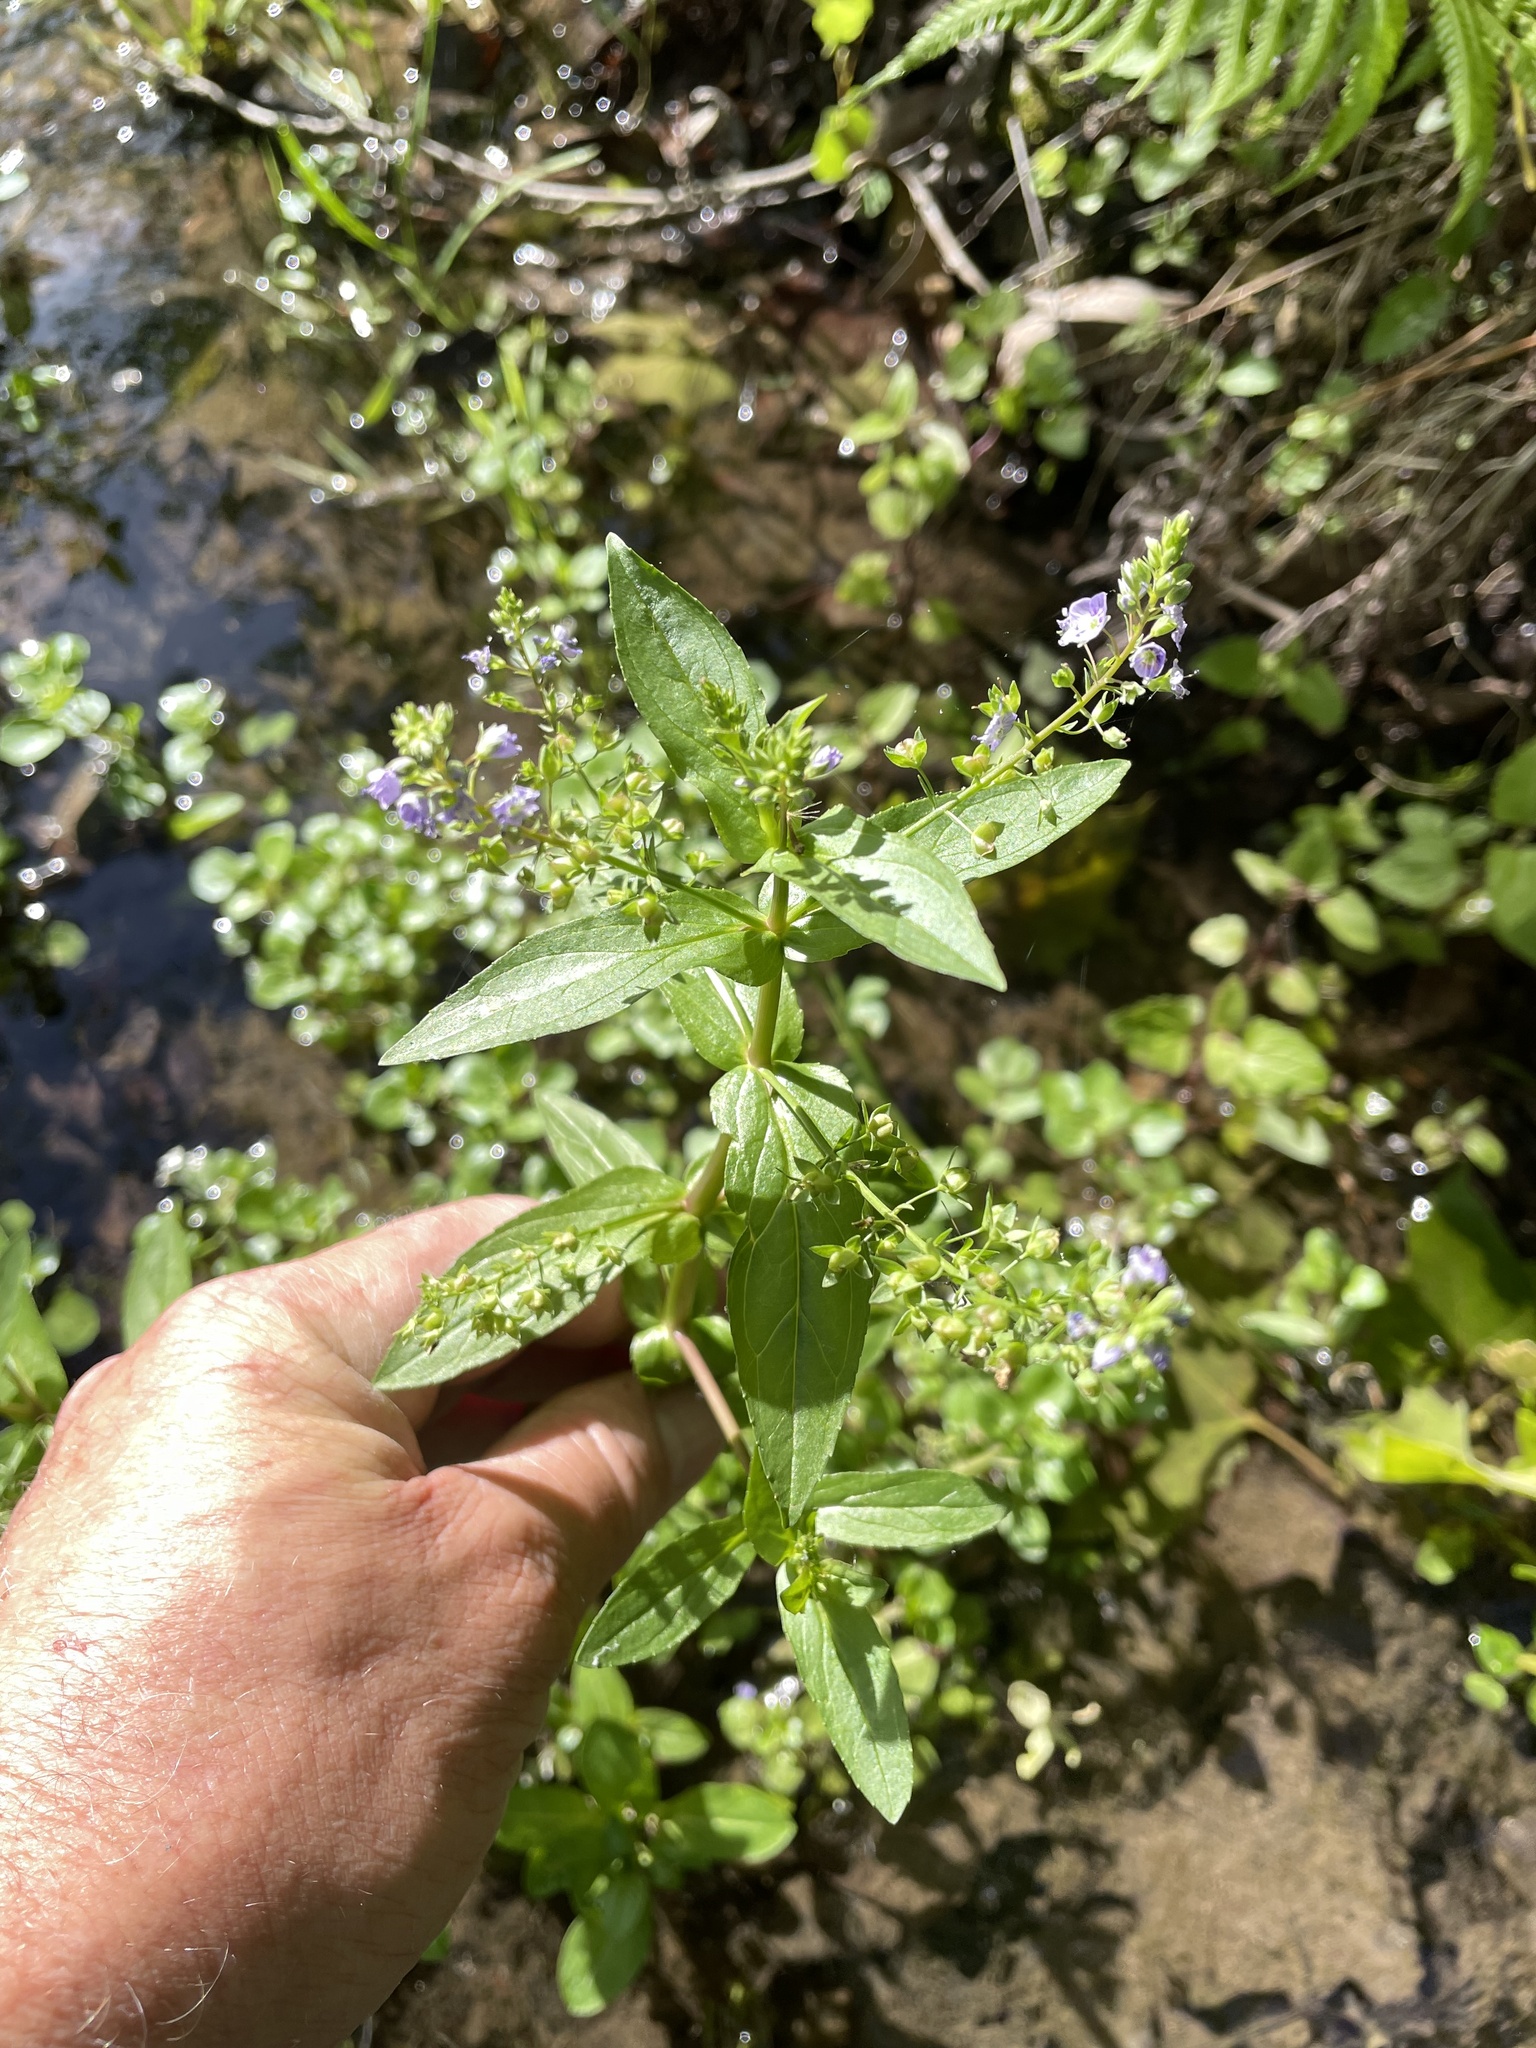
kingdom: Plantae
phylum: Tracheophyta
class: Magnoliopsida
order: Lamiales
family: Plantaginaceae
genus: Veronica
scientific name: Veronica anagallis-aquatica
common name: Water speedwell
